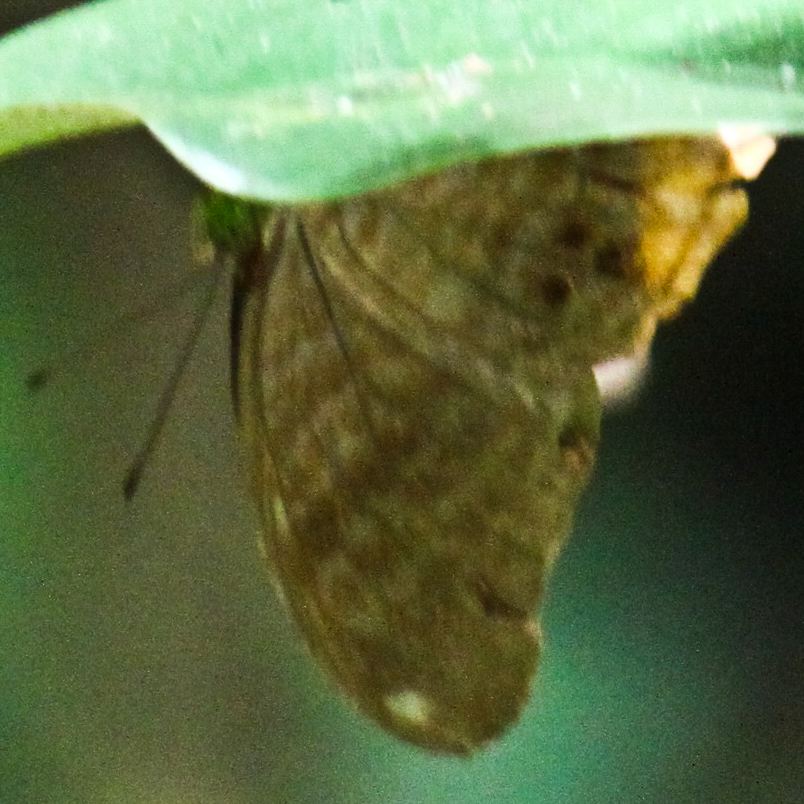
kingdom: Animalia
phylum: Arthropoda
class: Insecta
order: Lepidoptera
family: Nymphalidae
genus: Terinos
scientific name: Terinos terpander
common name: Royal assyrian
